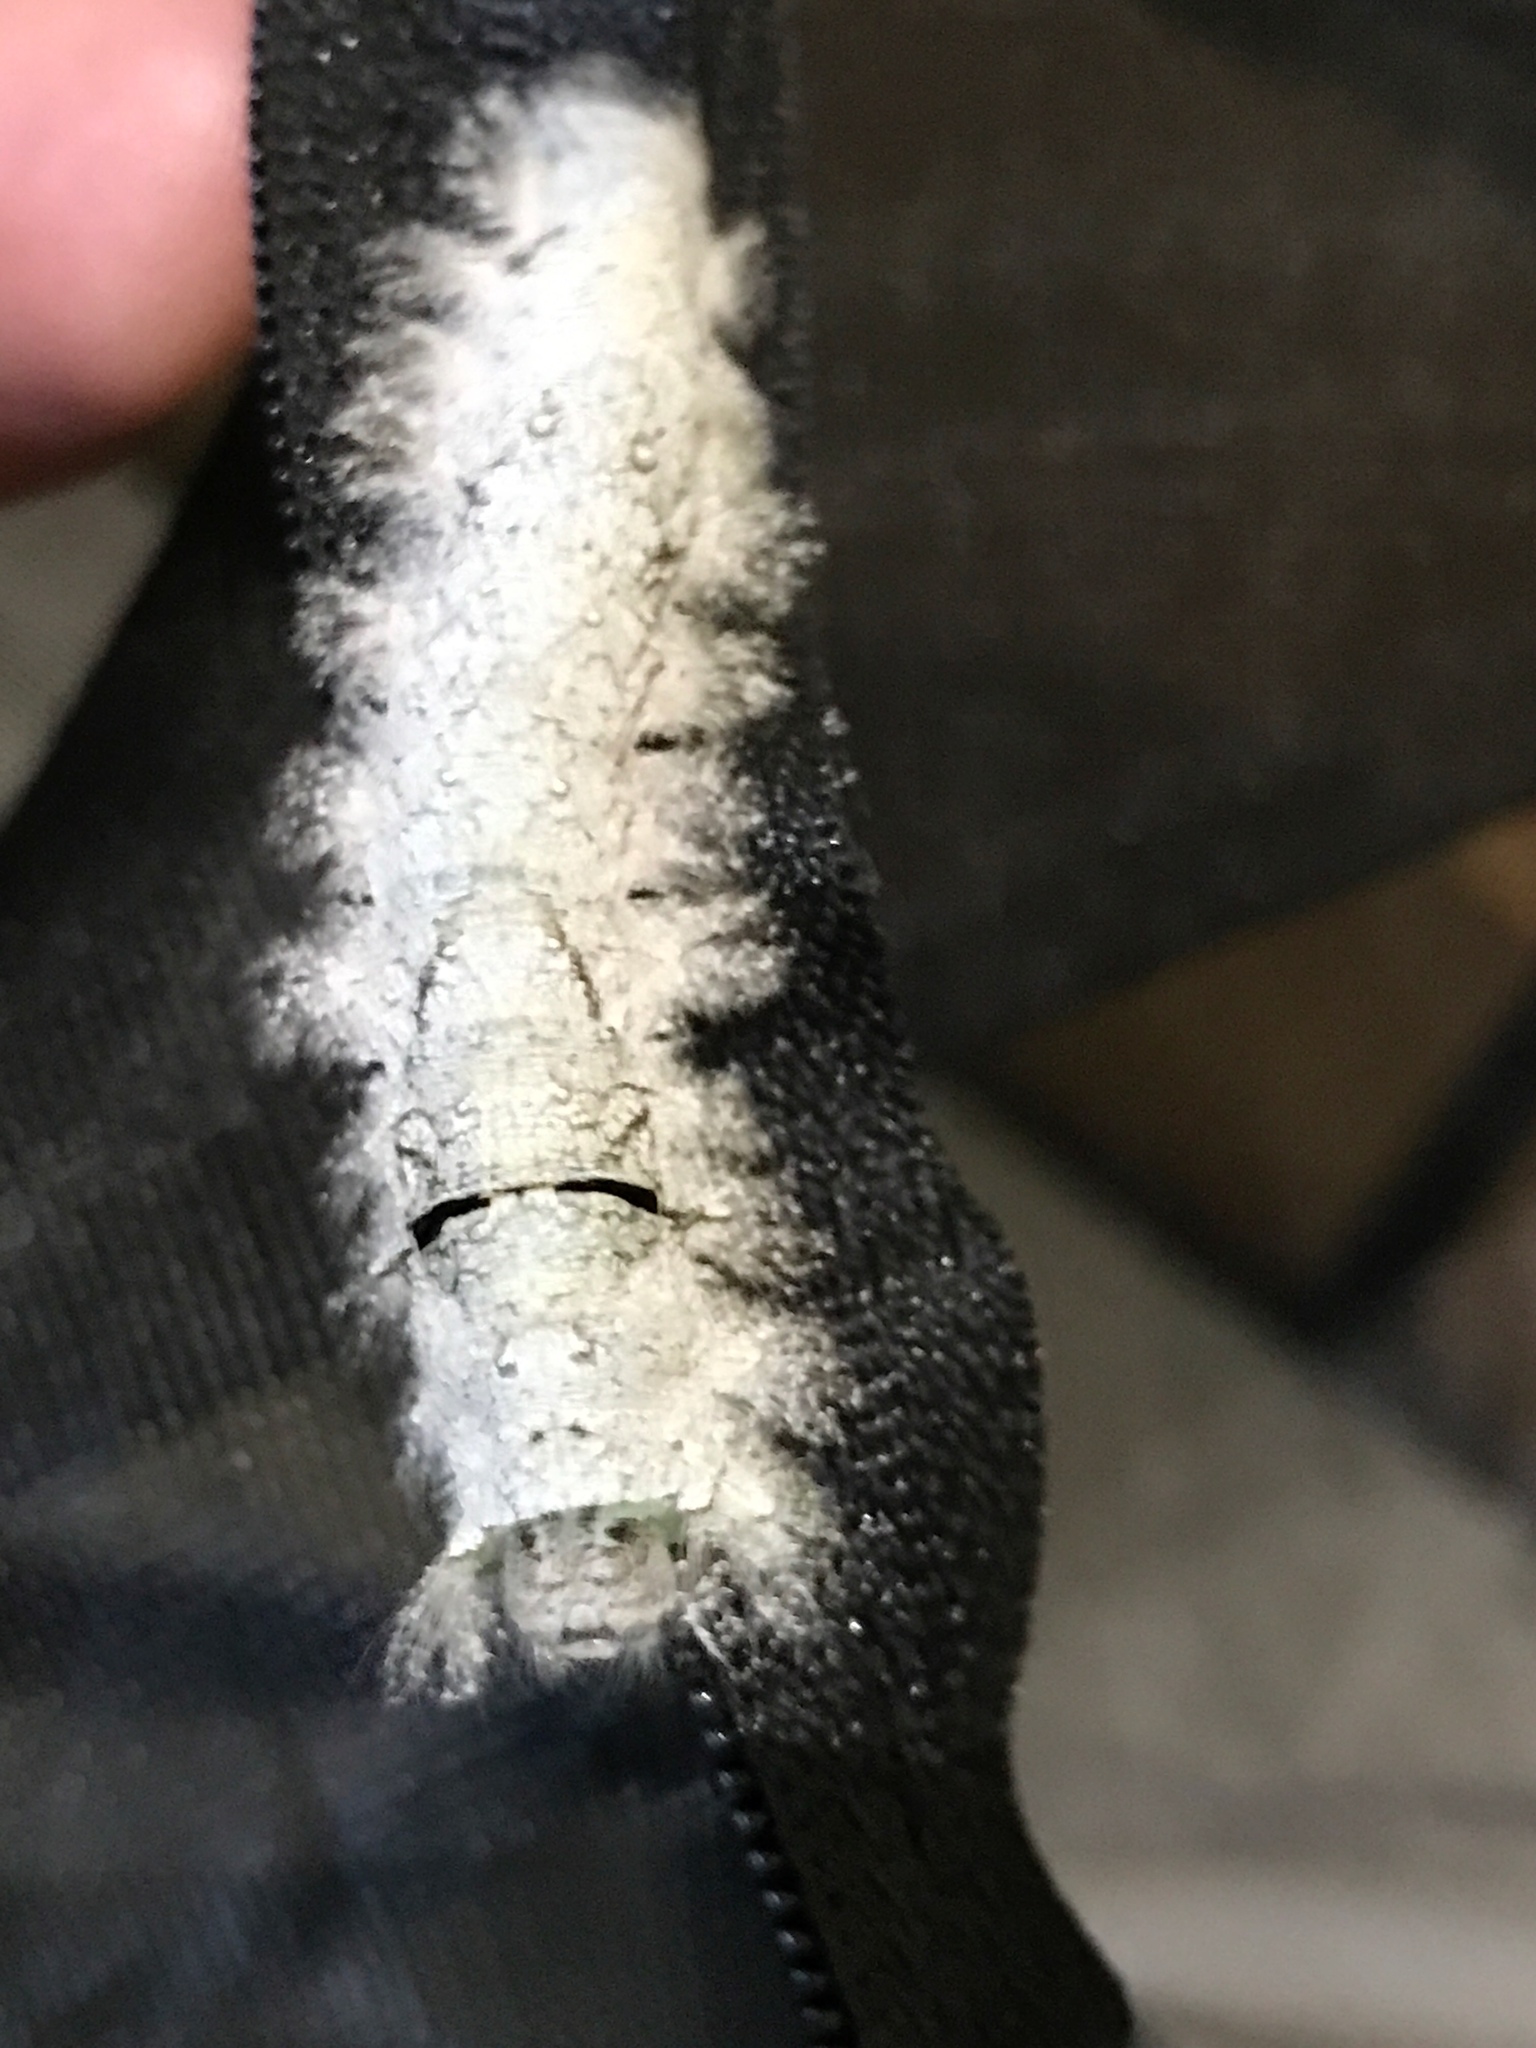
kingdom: Animalia
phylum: Arthropoda
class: Insecta
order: Lepidoptera
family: Lasiocampidae
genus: Artace
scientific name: Artace cribrarius
